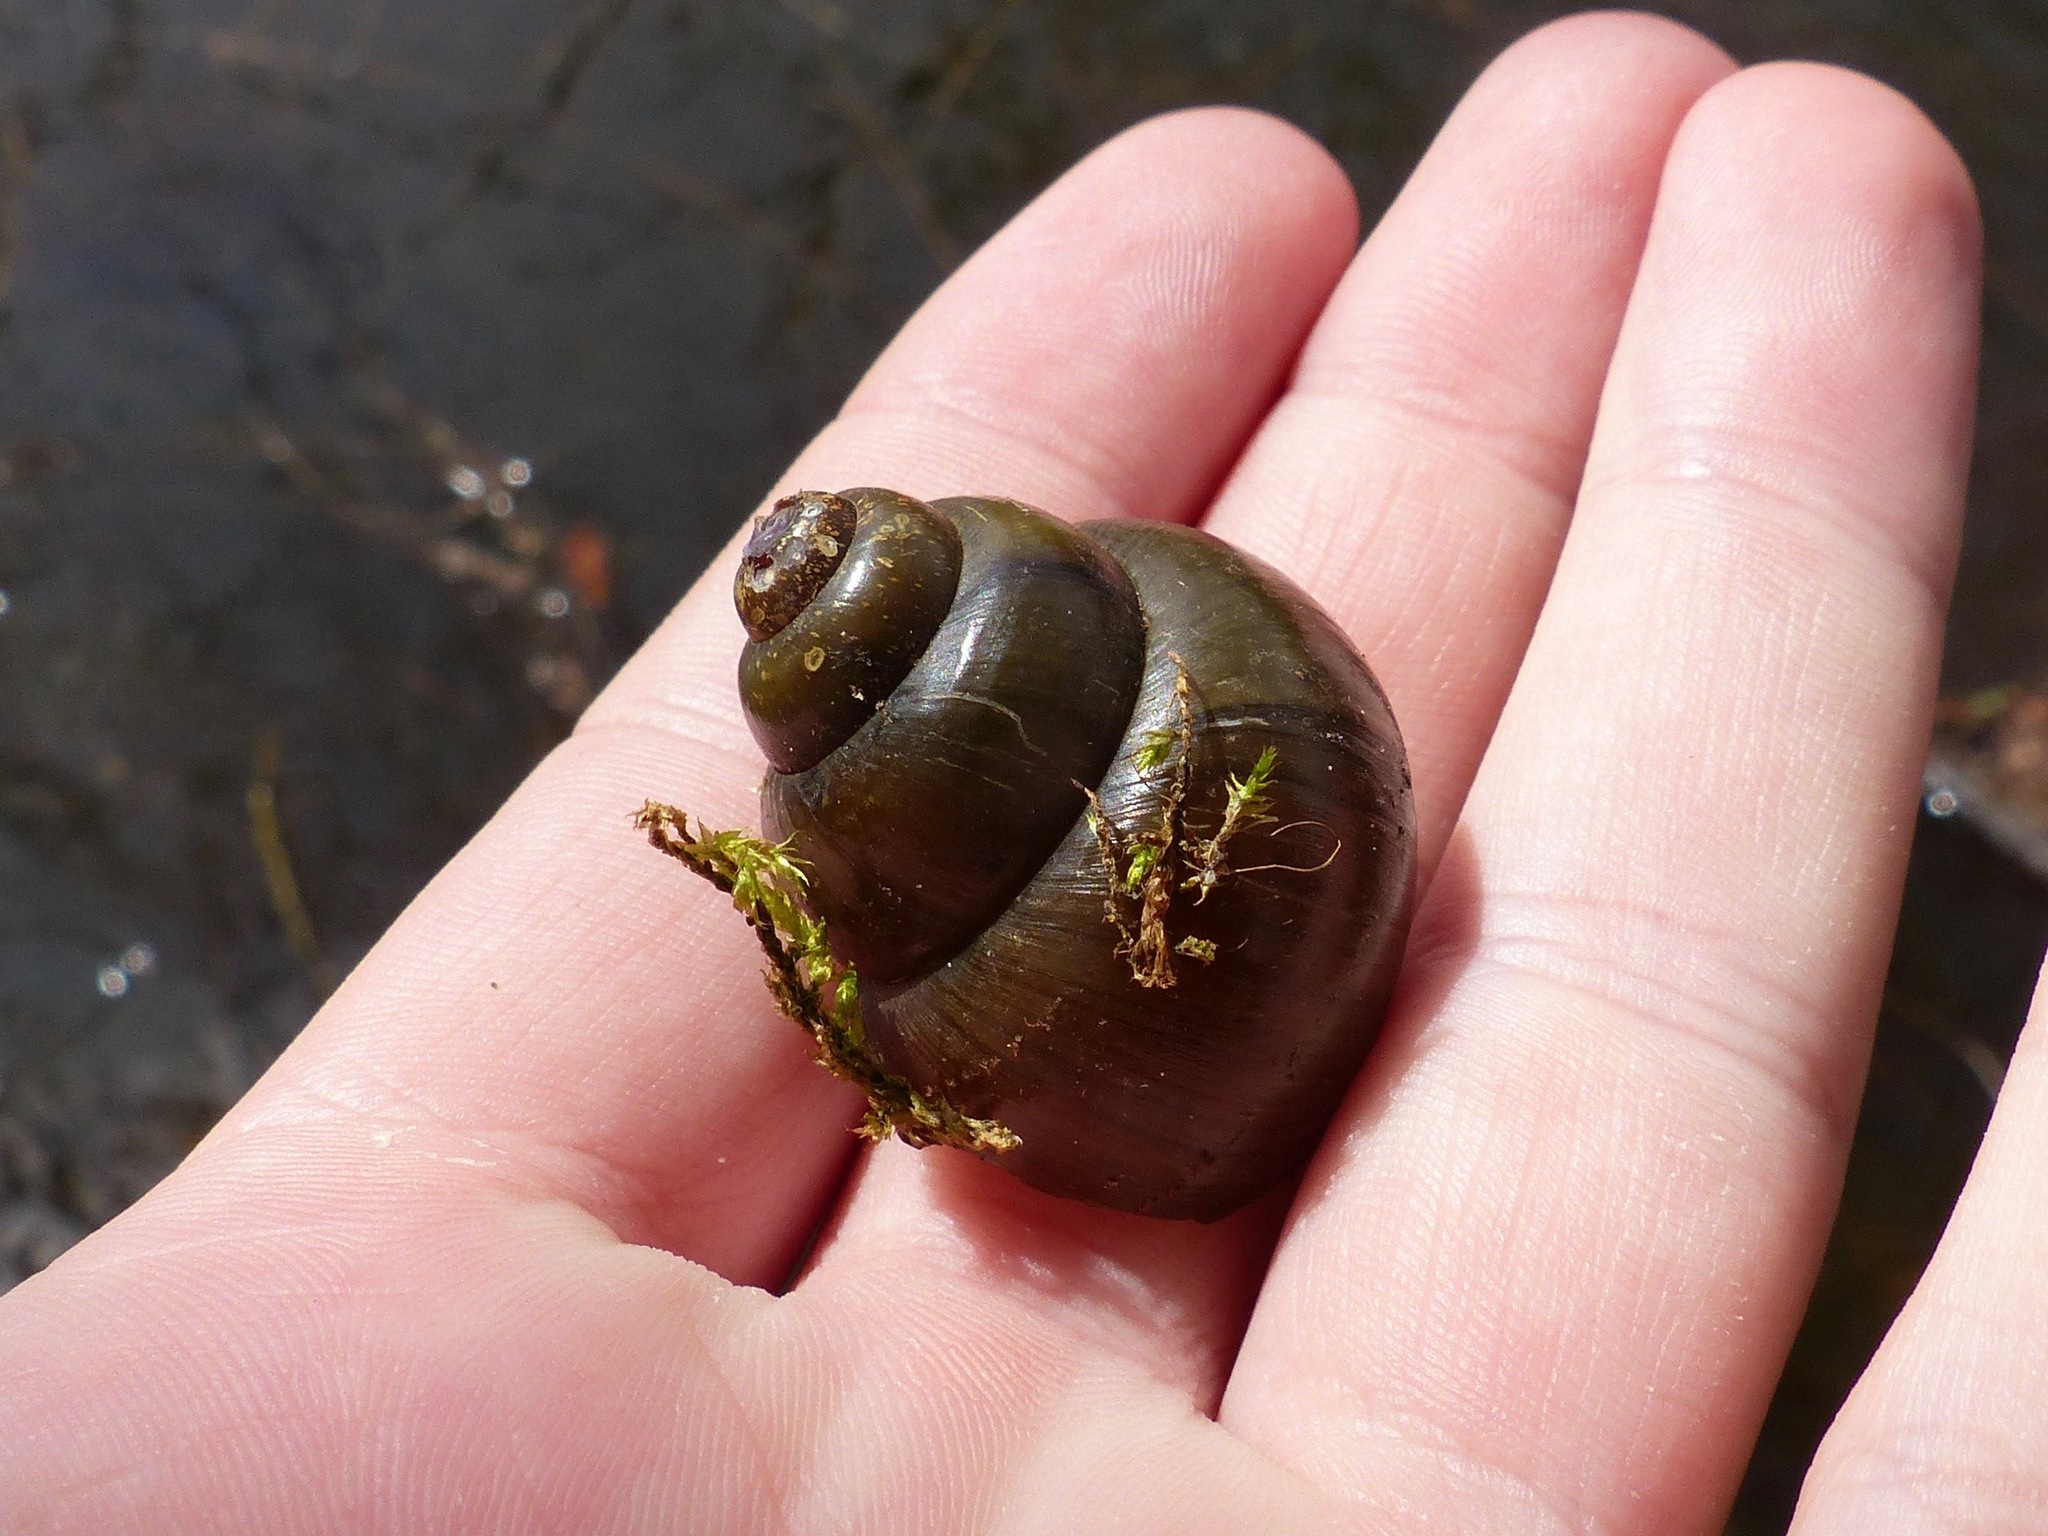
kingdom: Animalia
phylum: Mollusca
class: Gastropoda
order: Architaenioglossa
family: Viviparidae
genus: Cipangopaludina
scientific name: Cipangopaludina chinensis
